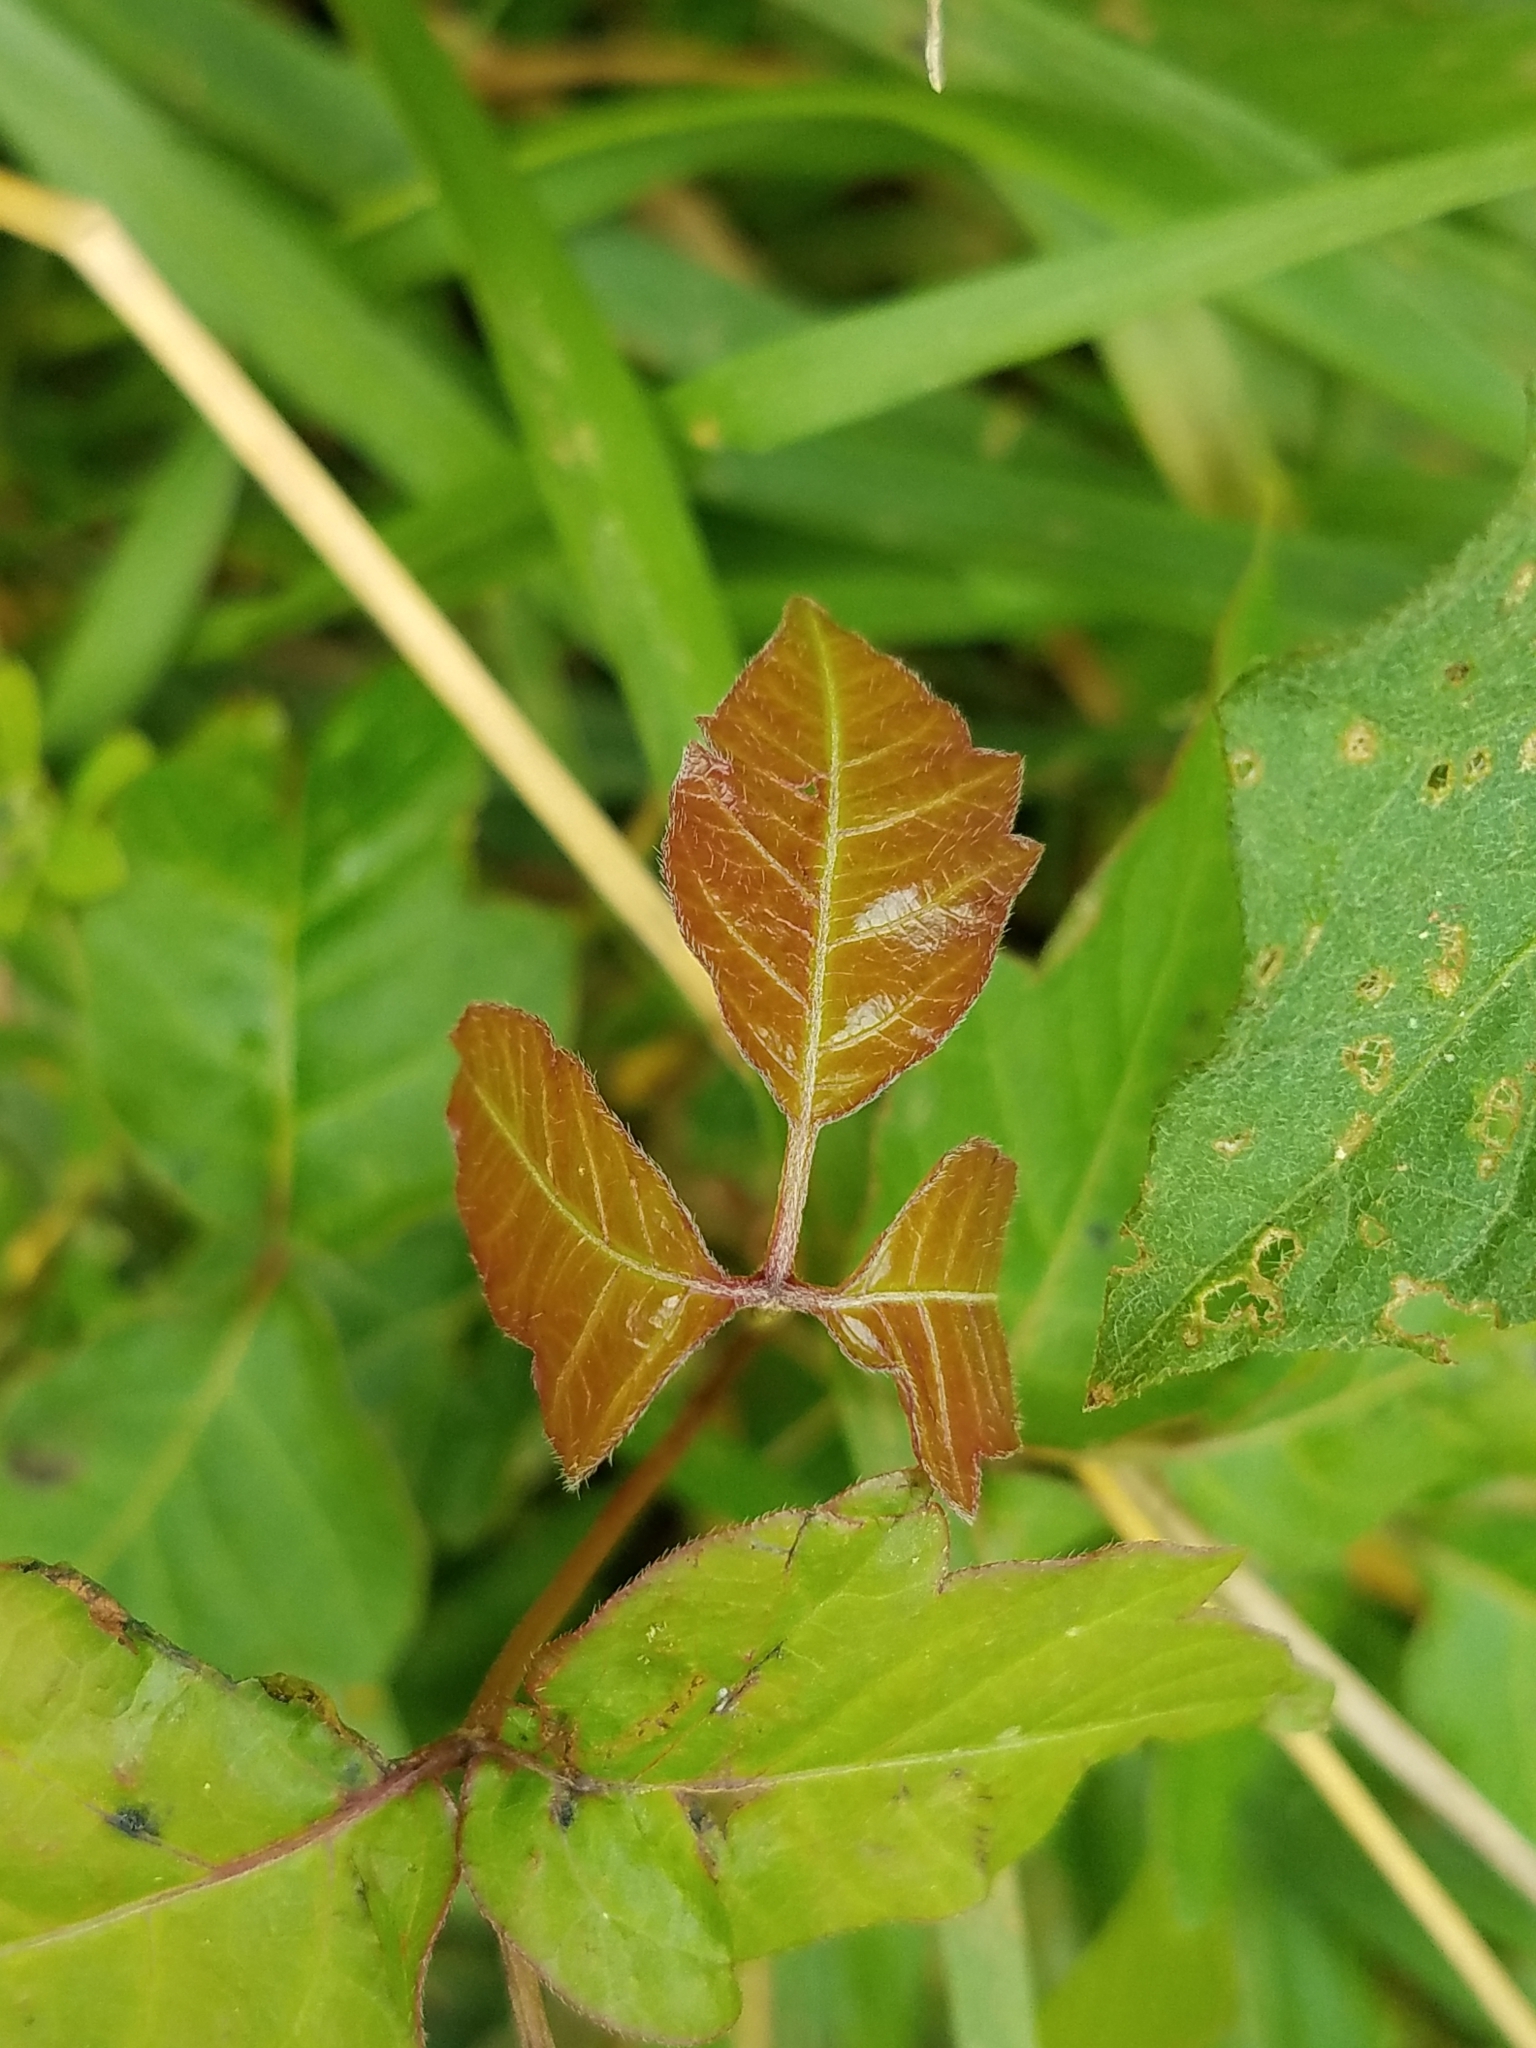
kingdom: Plantae
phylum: Tracheophyta
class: Magnoliopsida
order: Sapindales
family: Anacardiaceae
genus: Toxicodendron
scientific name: Toxicodendron radicans
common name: Poison ivy
